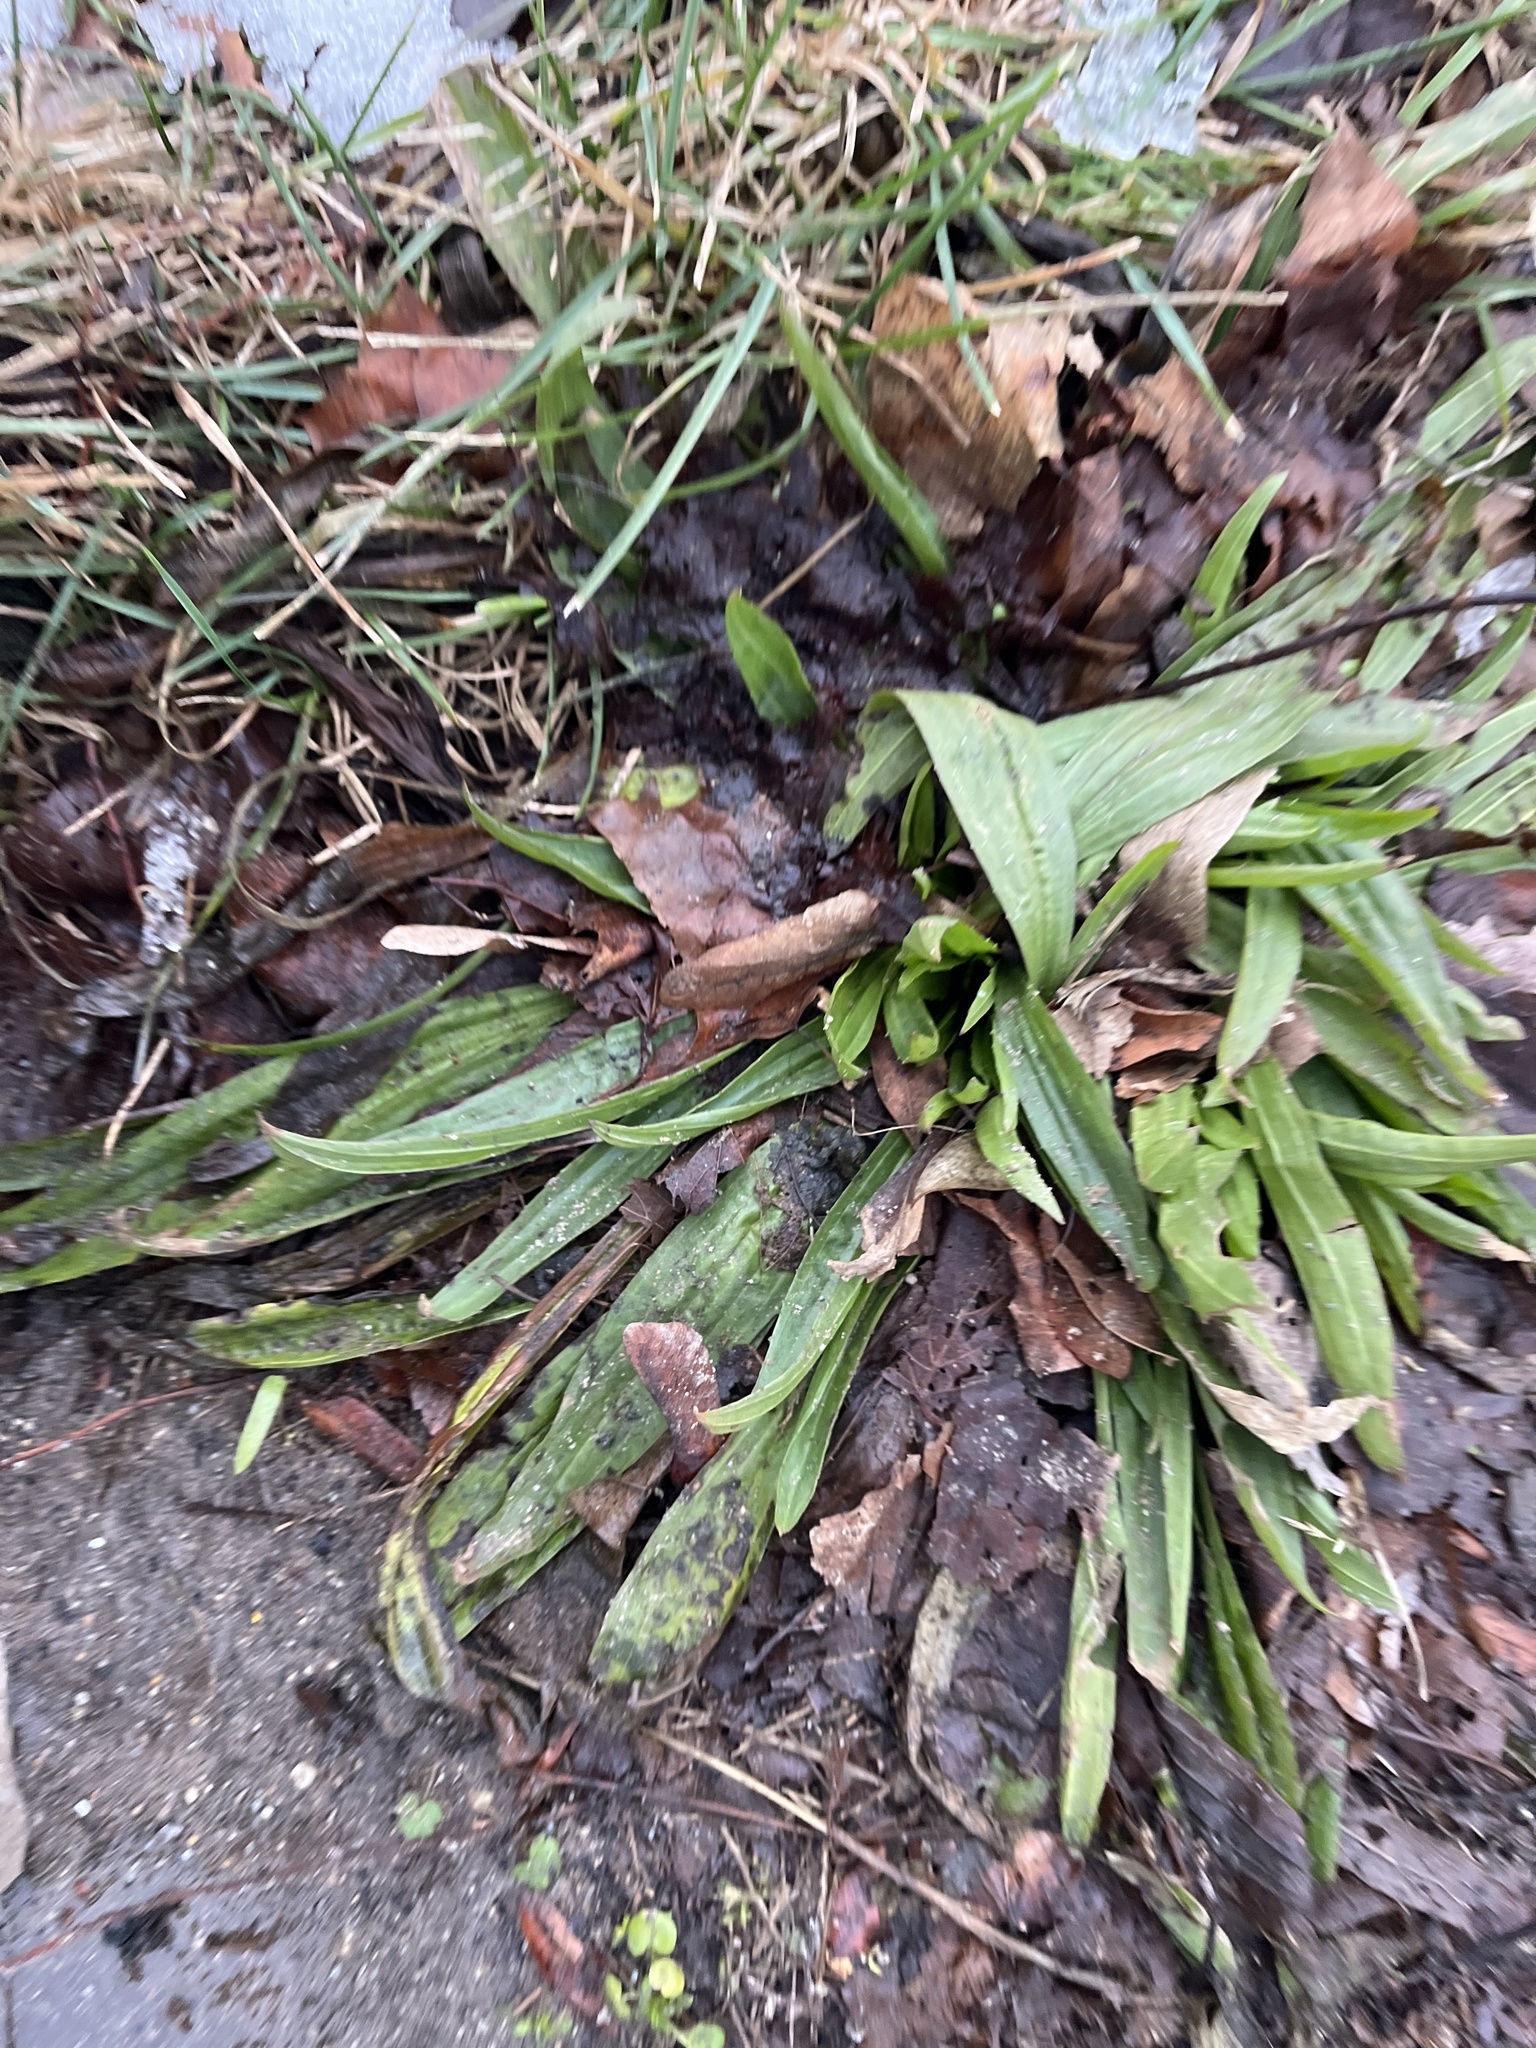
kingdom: Plantae
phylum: Tracheophyta
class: Magnoliopsida
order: Lamiales
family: Plantaginaceae
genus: Plantago
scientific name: Plantago lanceolata
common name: Ribwort plantain
